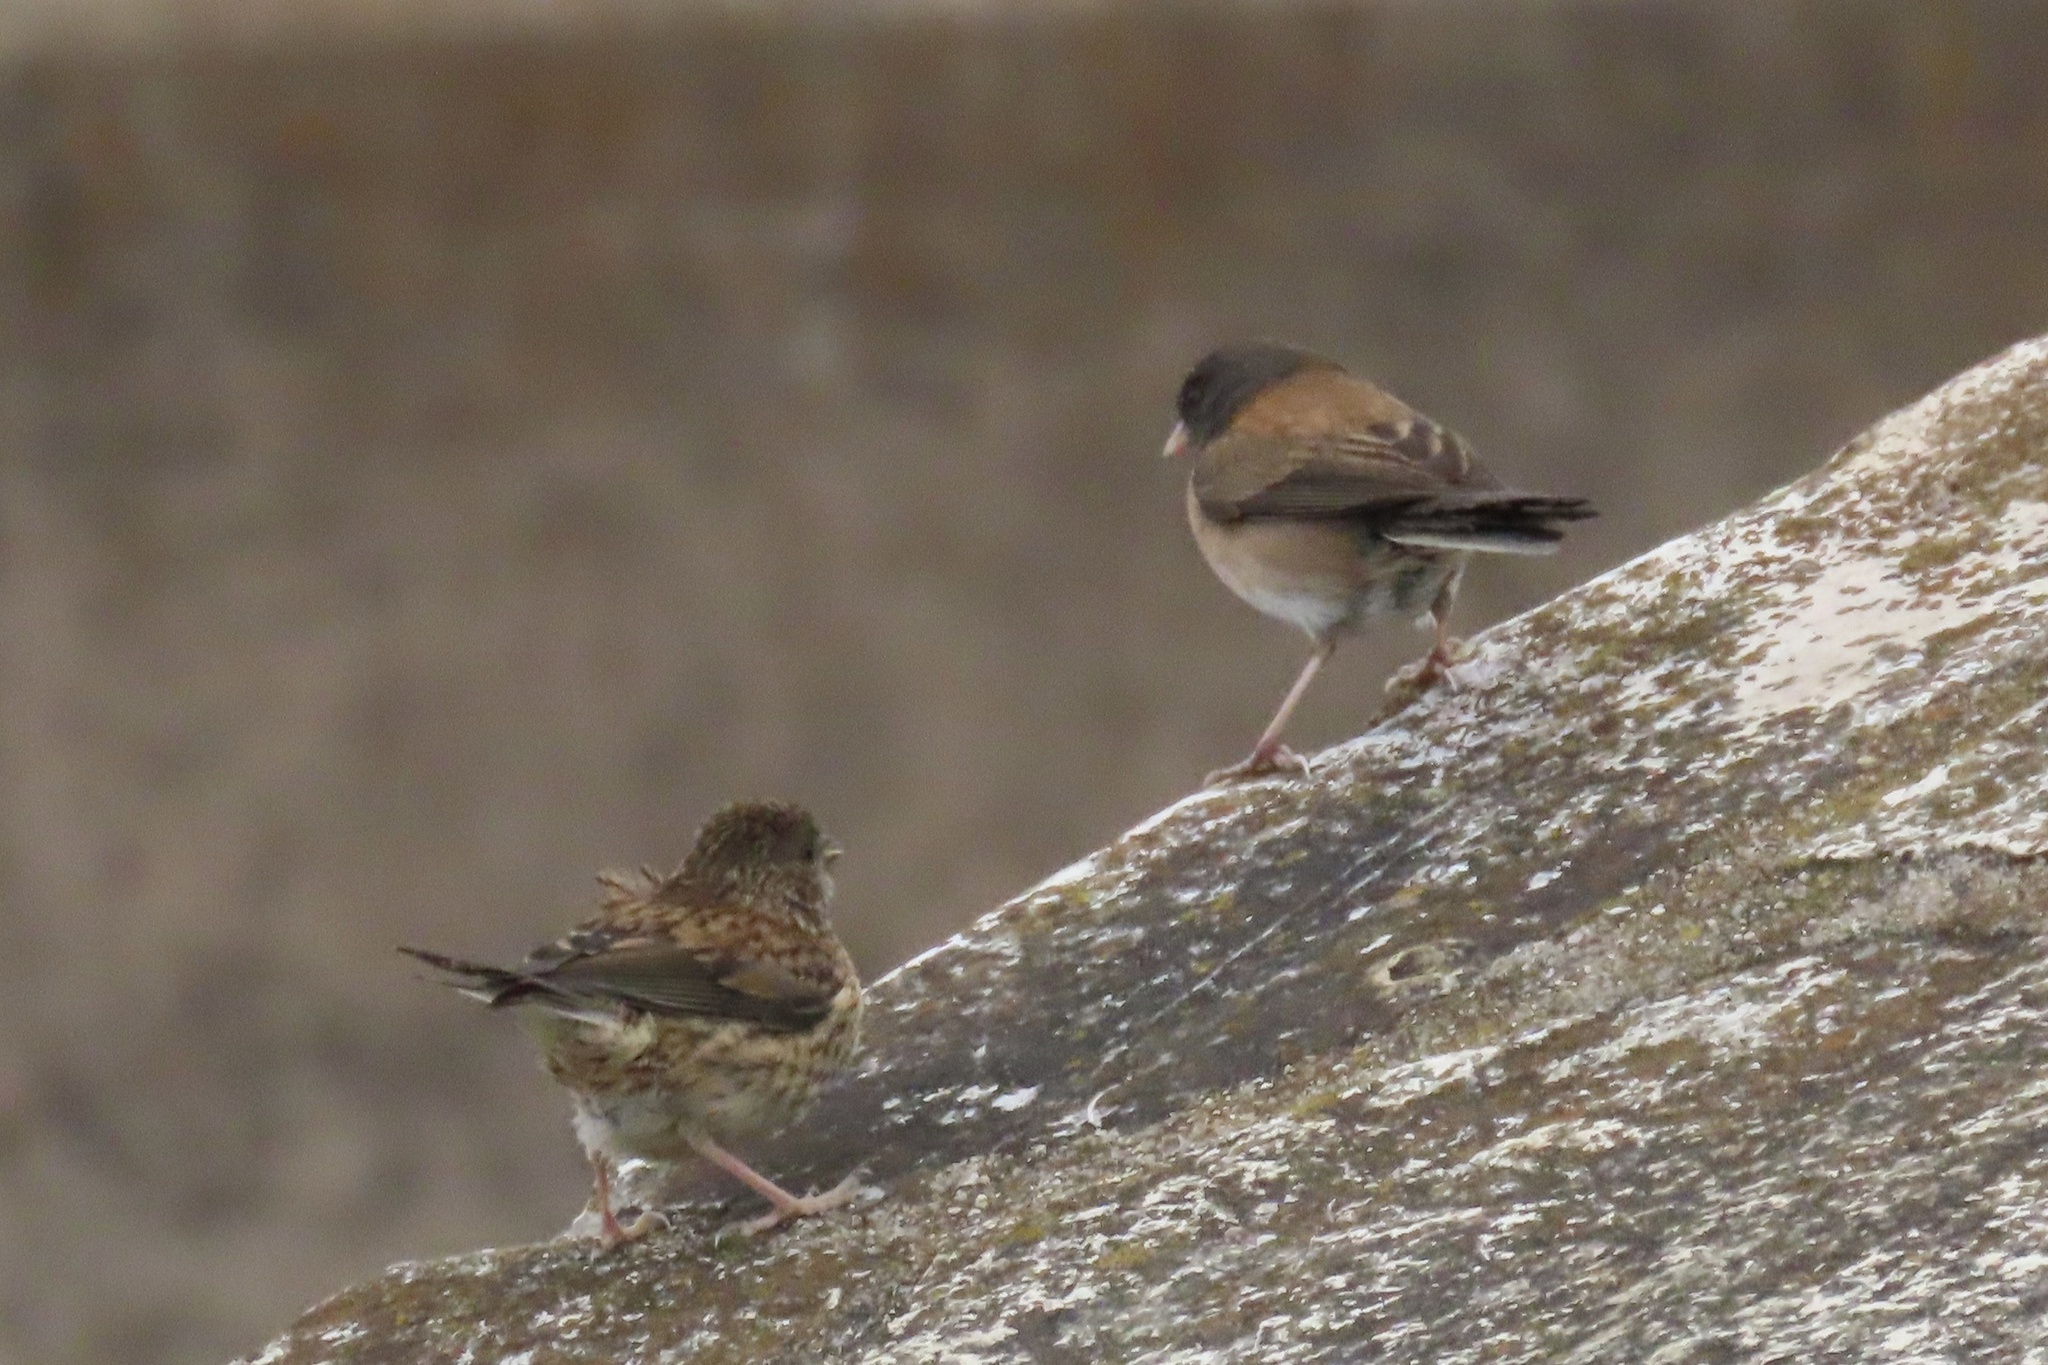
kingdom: Animalia
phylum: Chordata
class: Aves
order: Passeriformes
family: Passerellidae
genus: Junco
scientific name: Junco hyemalis
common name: Dark-eyed junco
